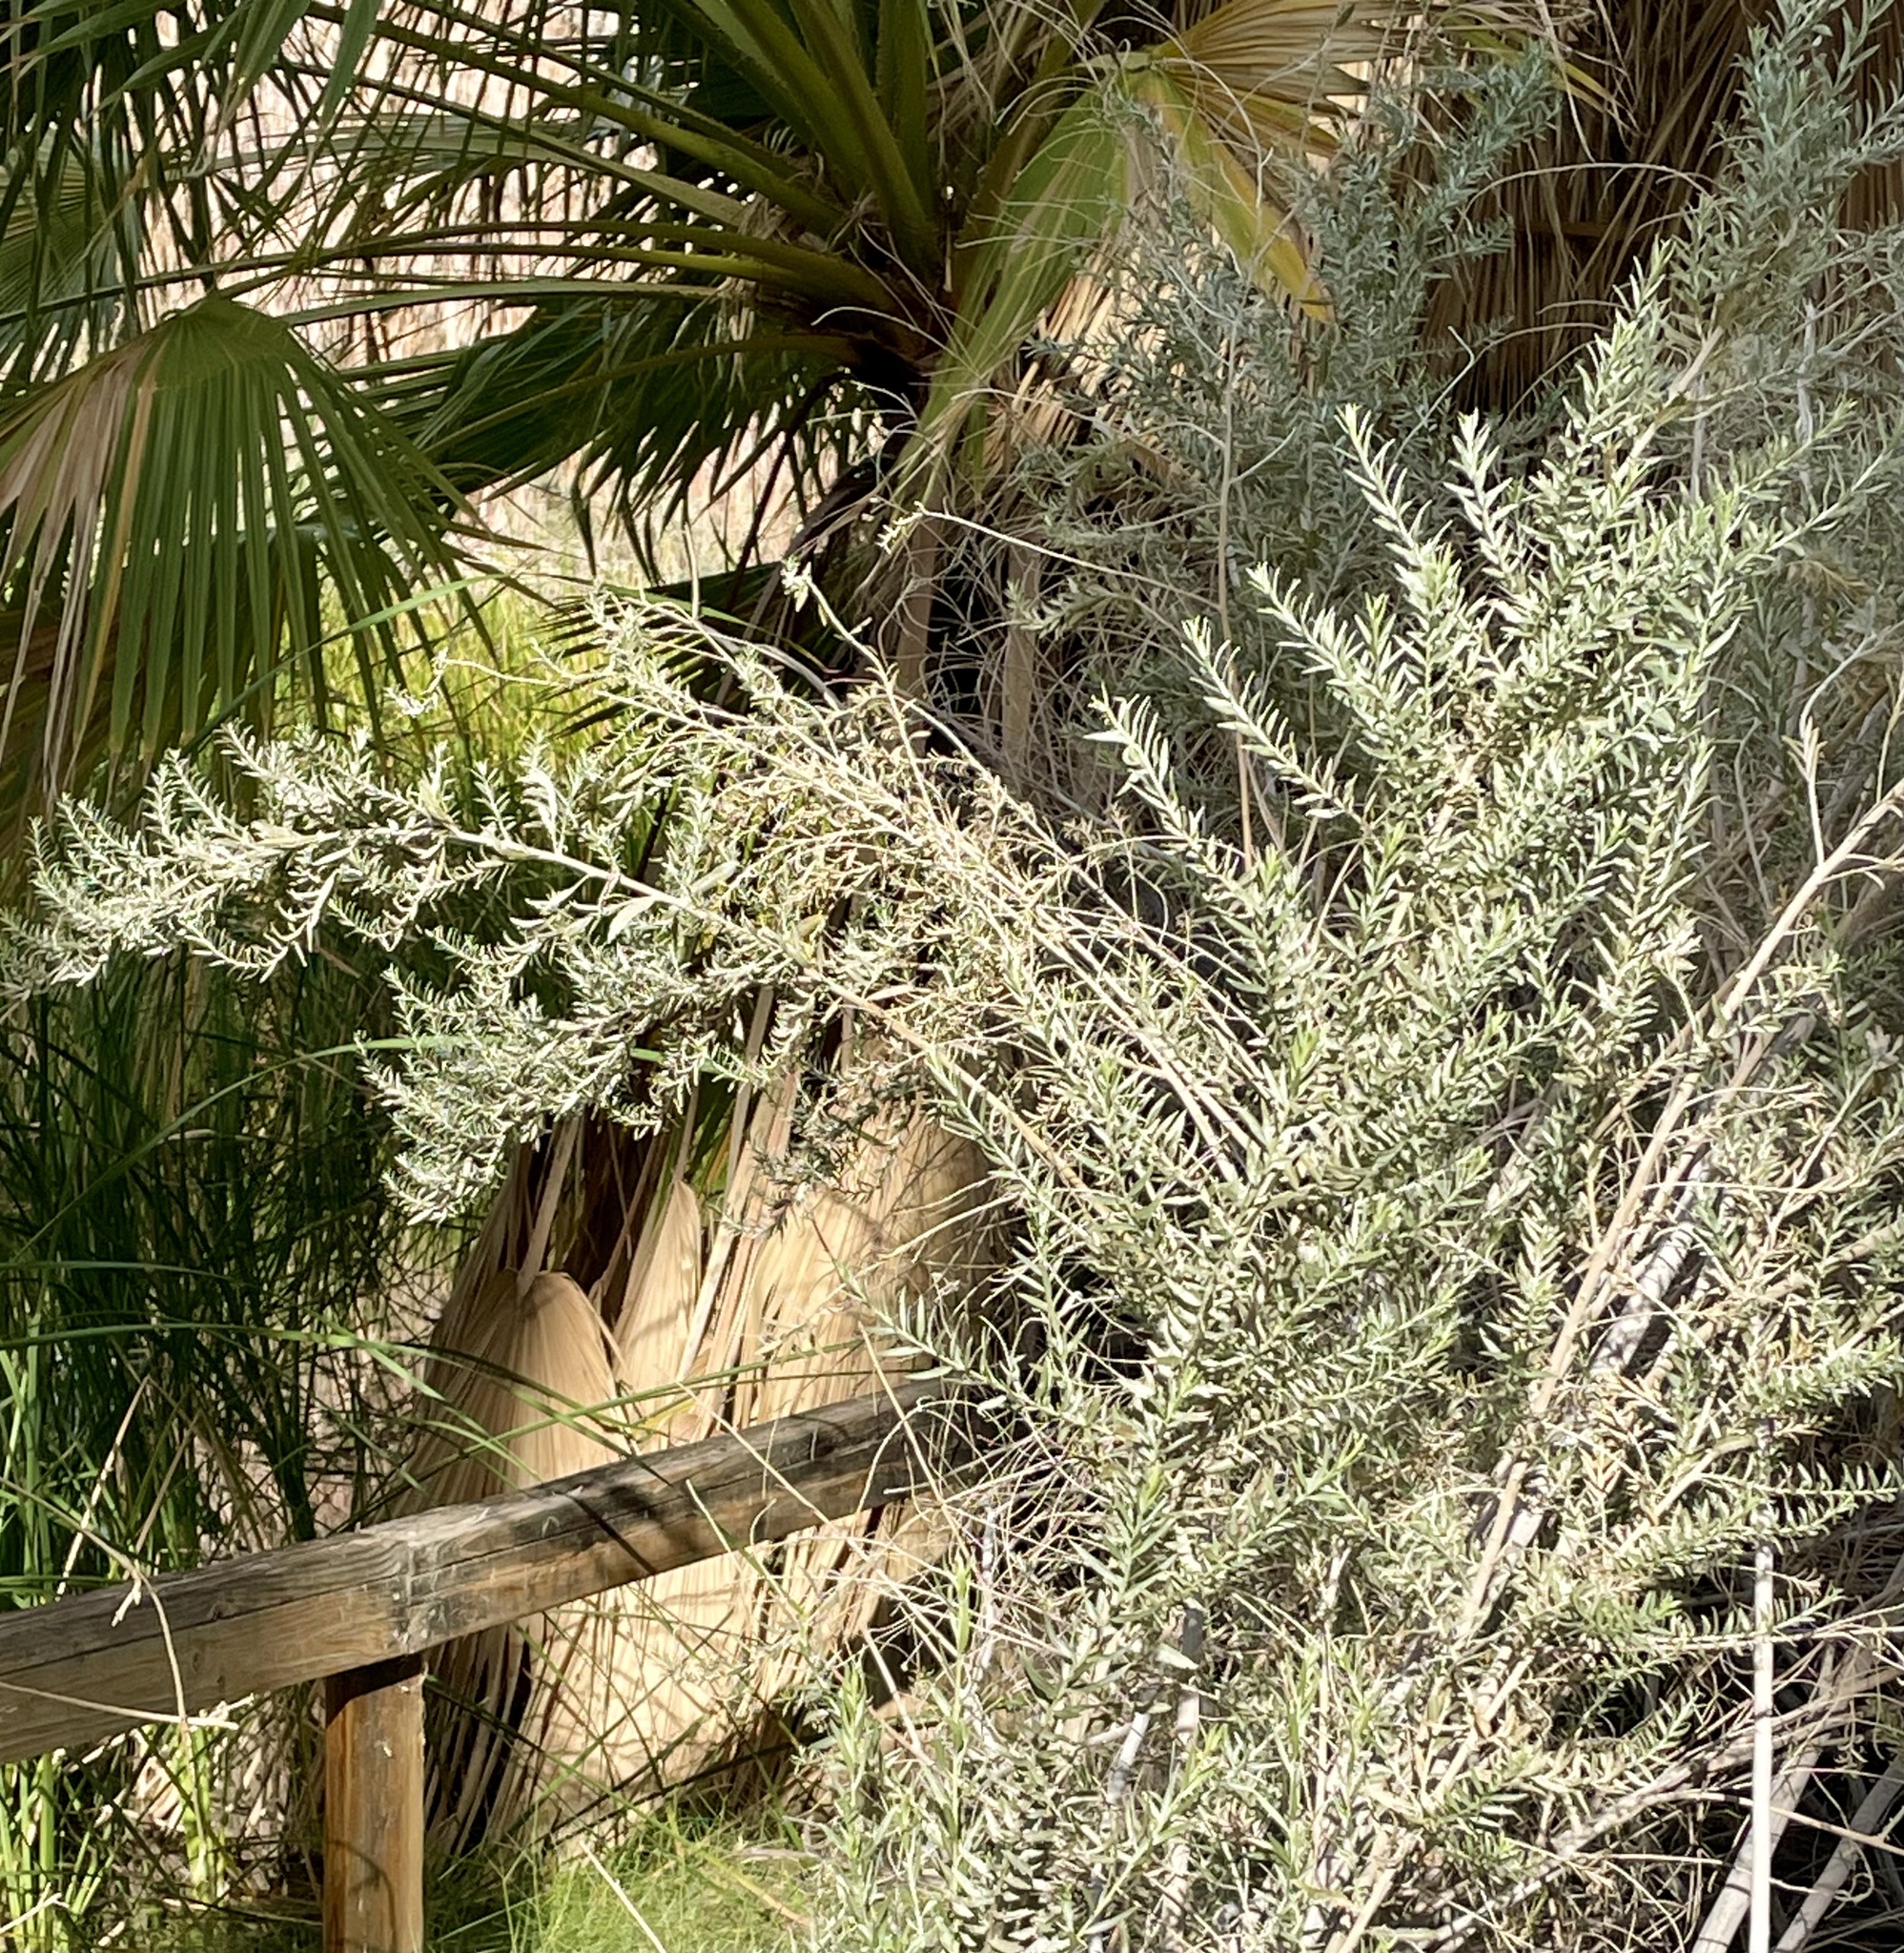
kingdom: Plantae
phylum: Tracheophyta
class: Magnoliopsida
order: Asterales
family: Asteraceae
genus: Pluchea
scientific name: Pluchea sericea
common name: Arrow-weed
